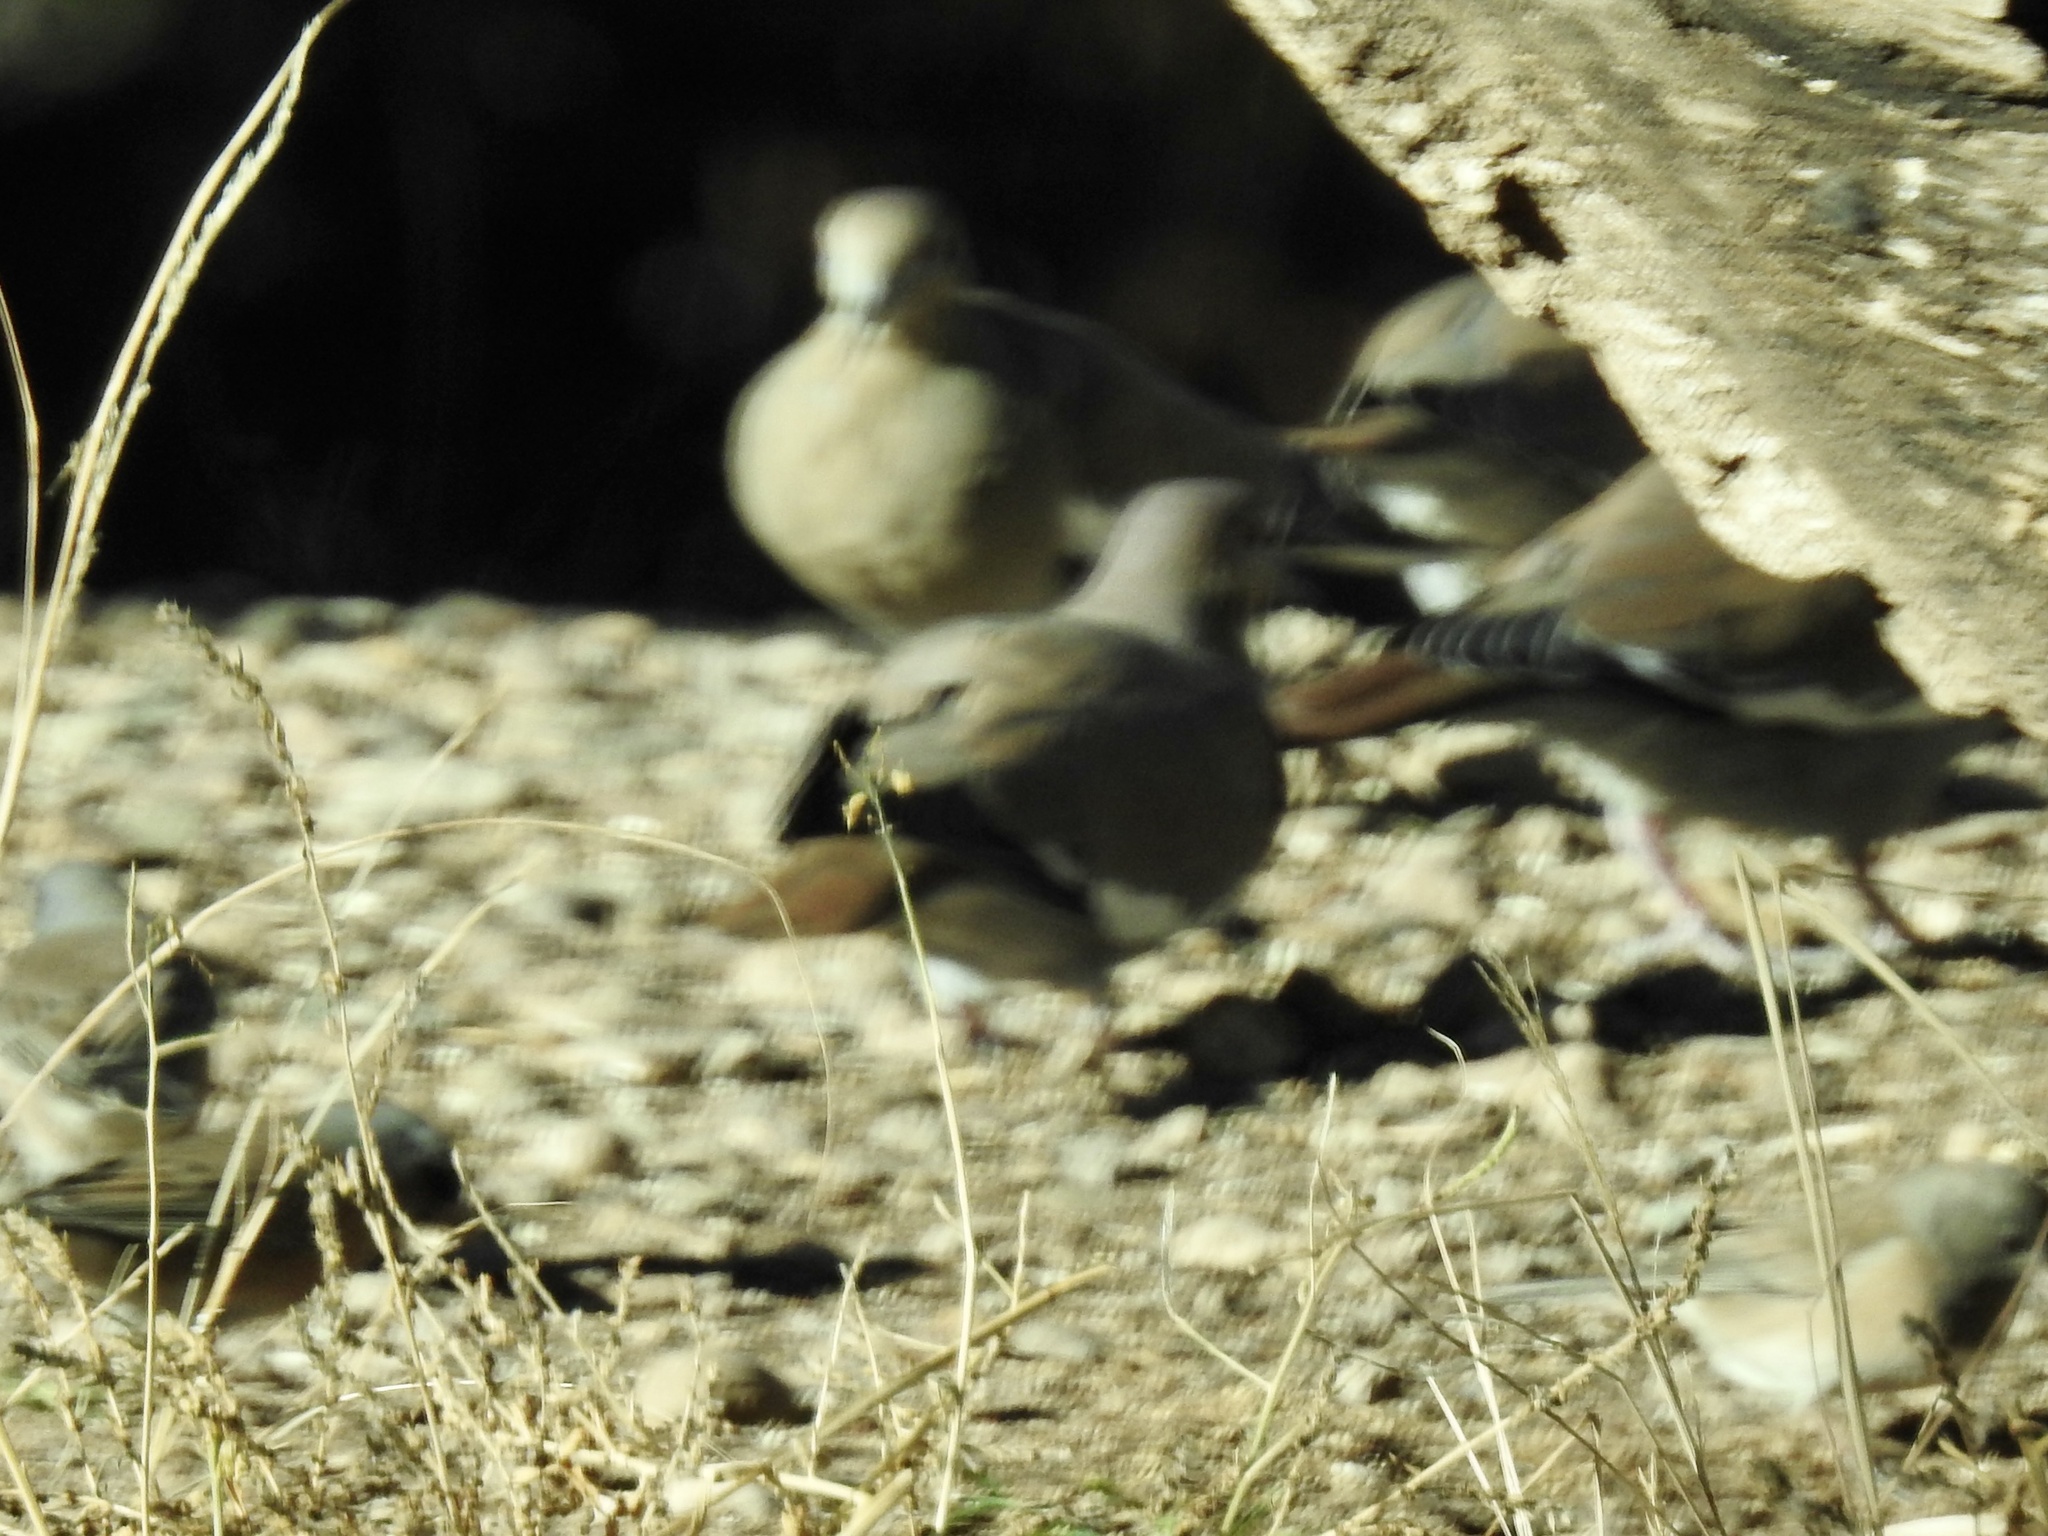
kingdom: Animalia
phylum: Chordata
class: Aves
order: Columbiformes
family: Columbidae
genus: Zenaida
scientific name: Zenaida asiatica
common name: White-winged dove
